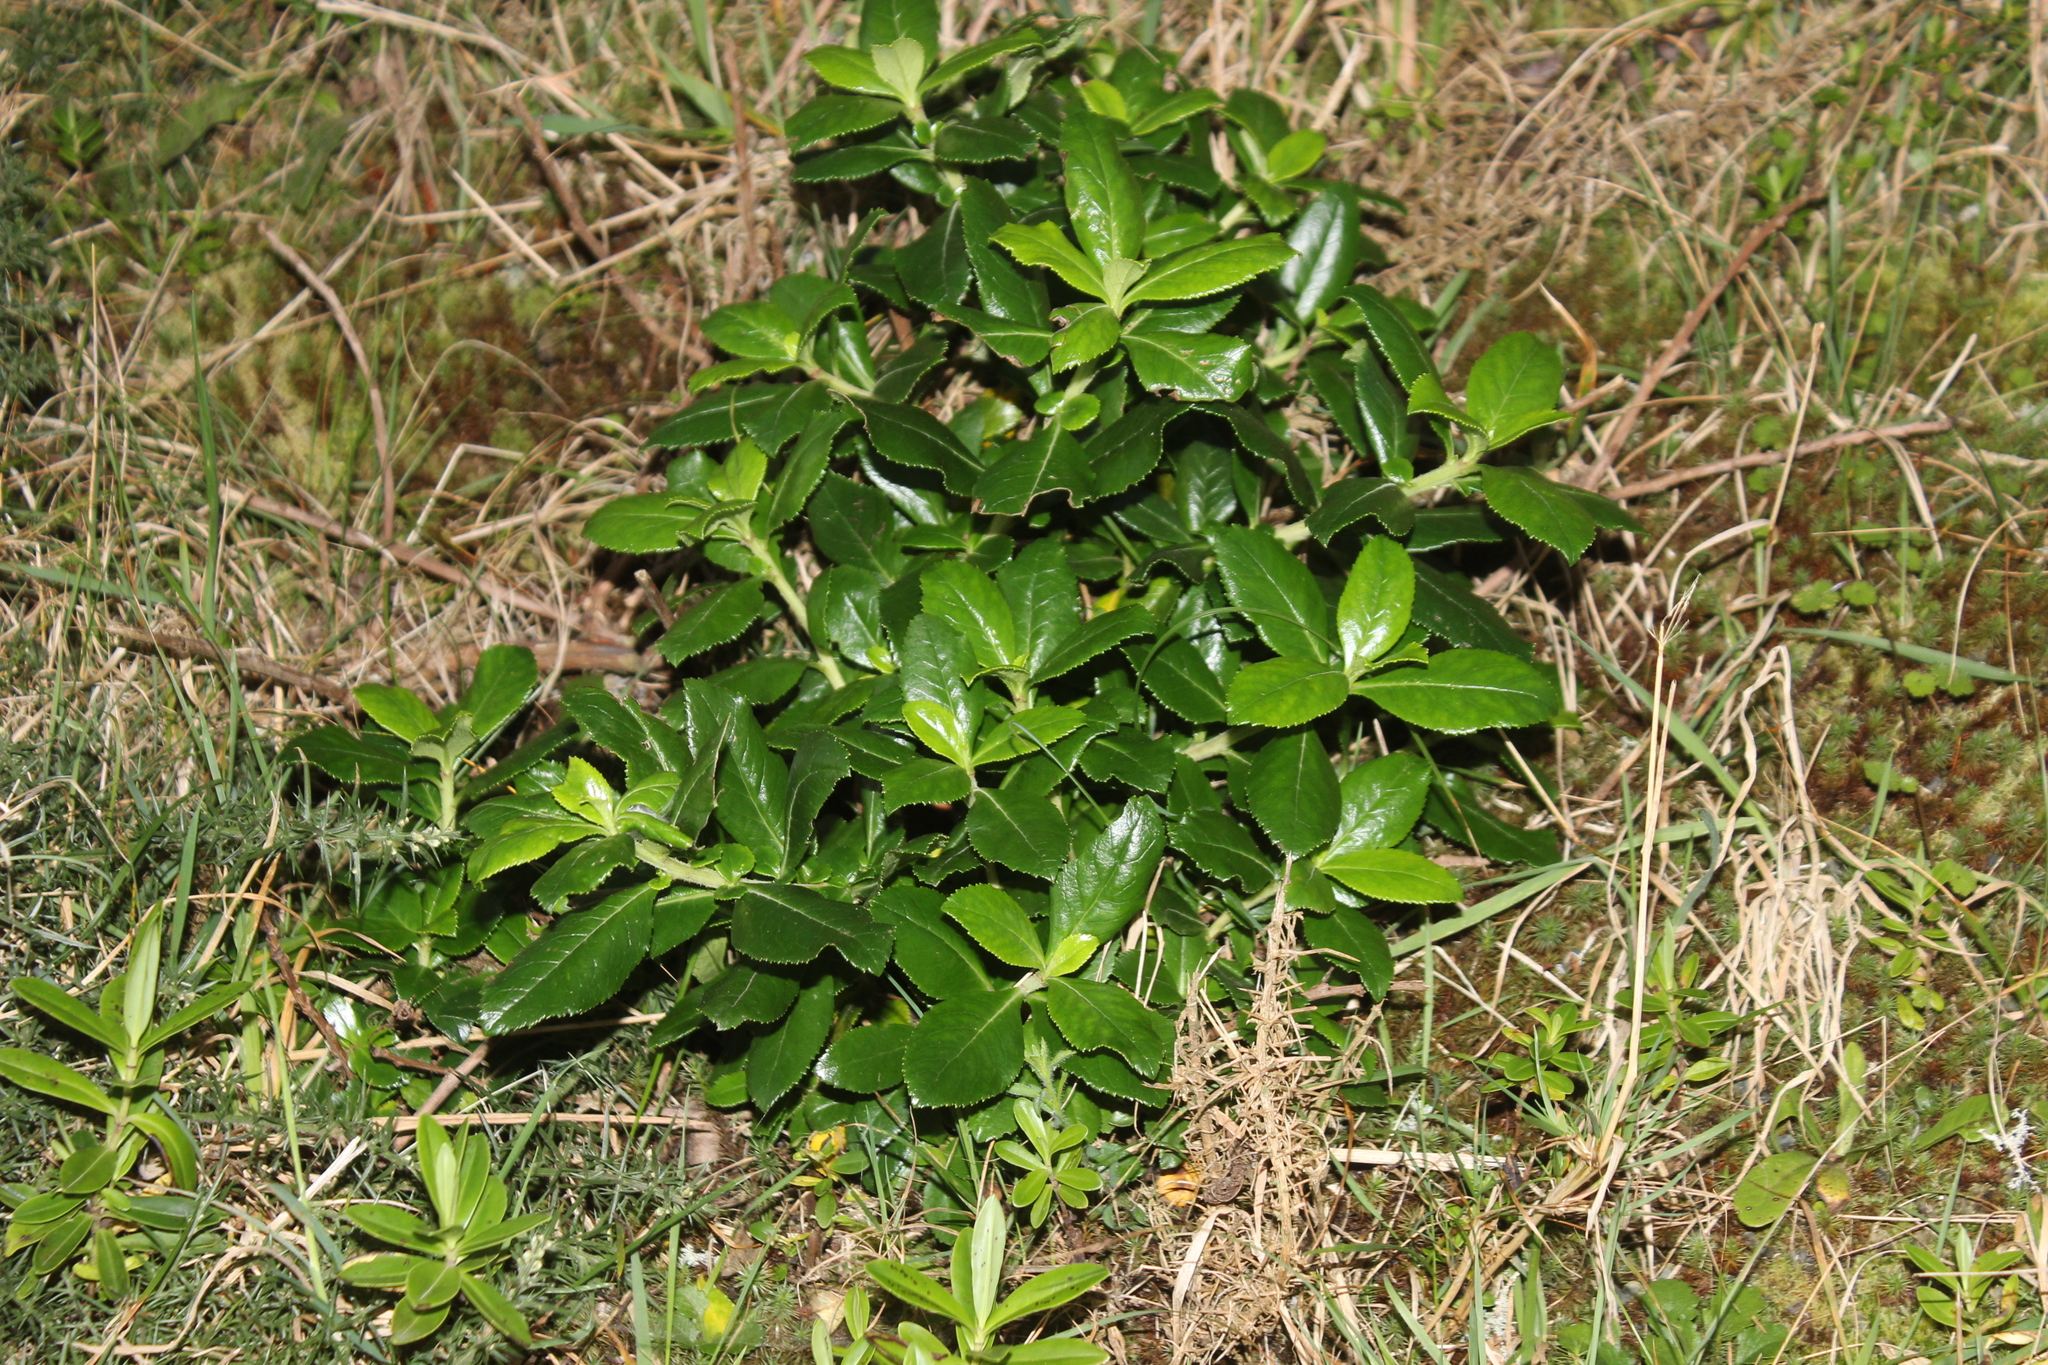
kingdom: Plantae
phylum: Tracheophyta
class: Magnoliopsida
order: Escalloniales
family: Escalloniaceae
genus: Escallonia
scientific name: Escallonia rubra
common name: Redclaws
